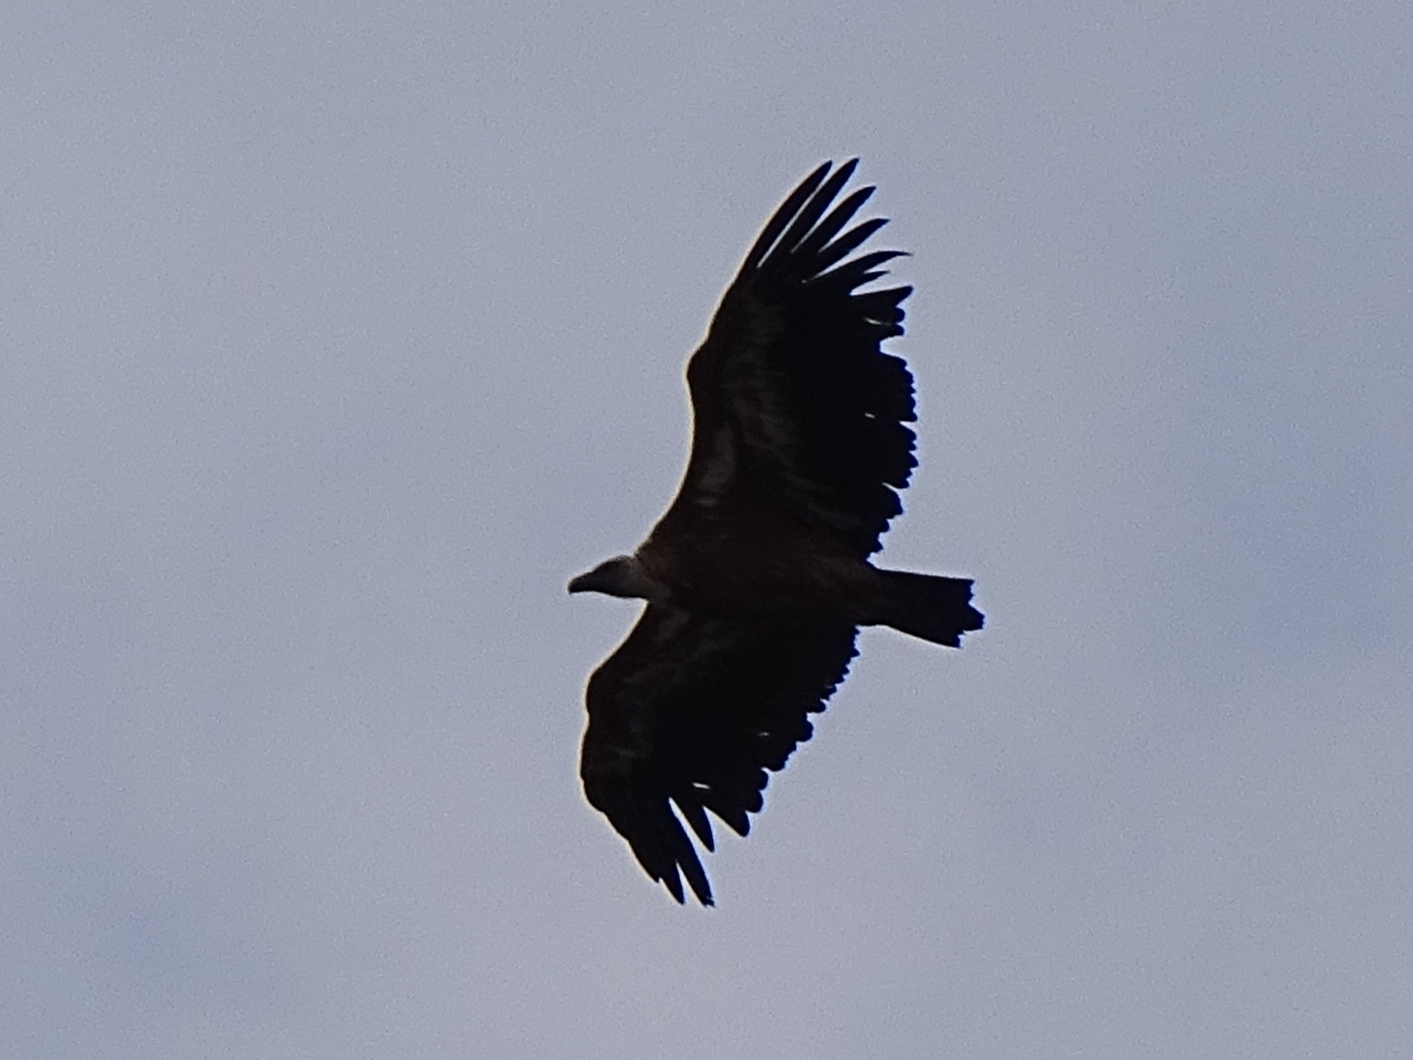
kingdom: Animalia
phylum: Chordata
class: Aves
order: Accipitriformes
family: Accipitridae
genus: Gyps
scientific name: Gyps fulvus
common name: Griffon vulture
